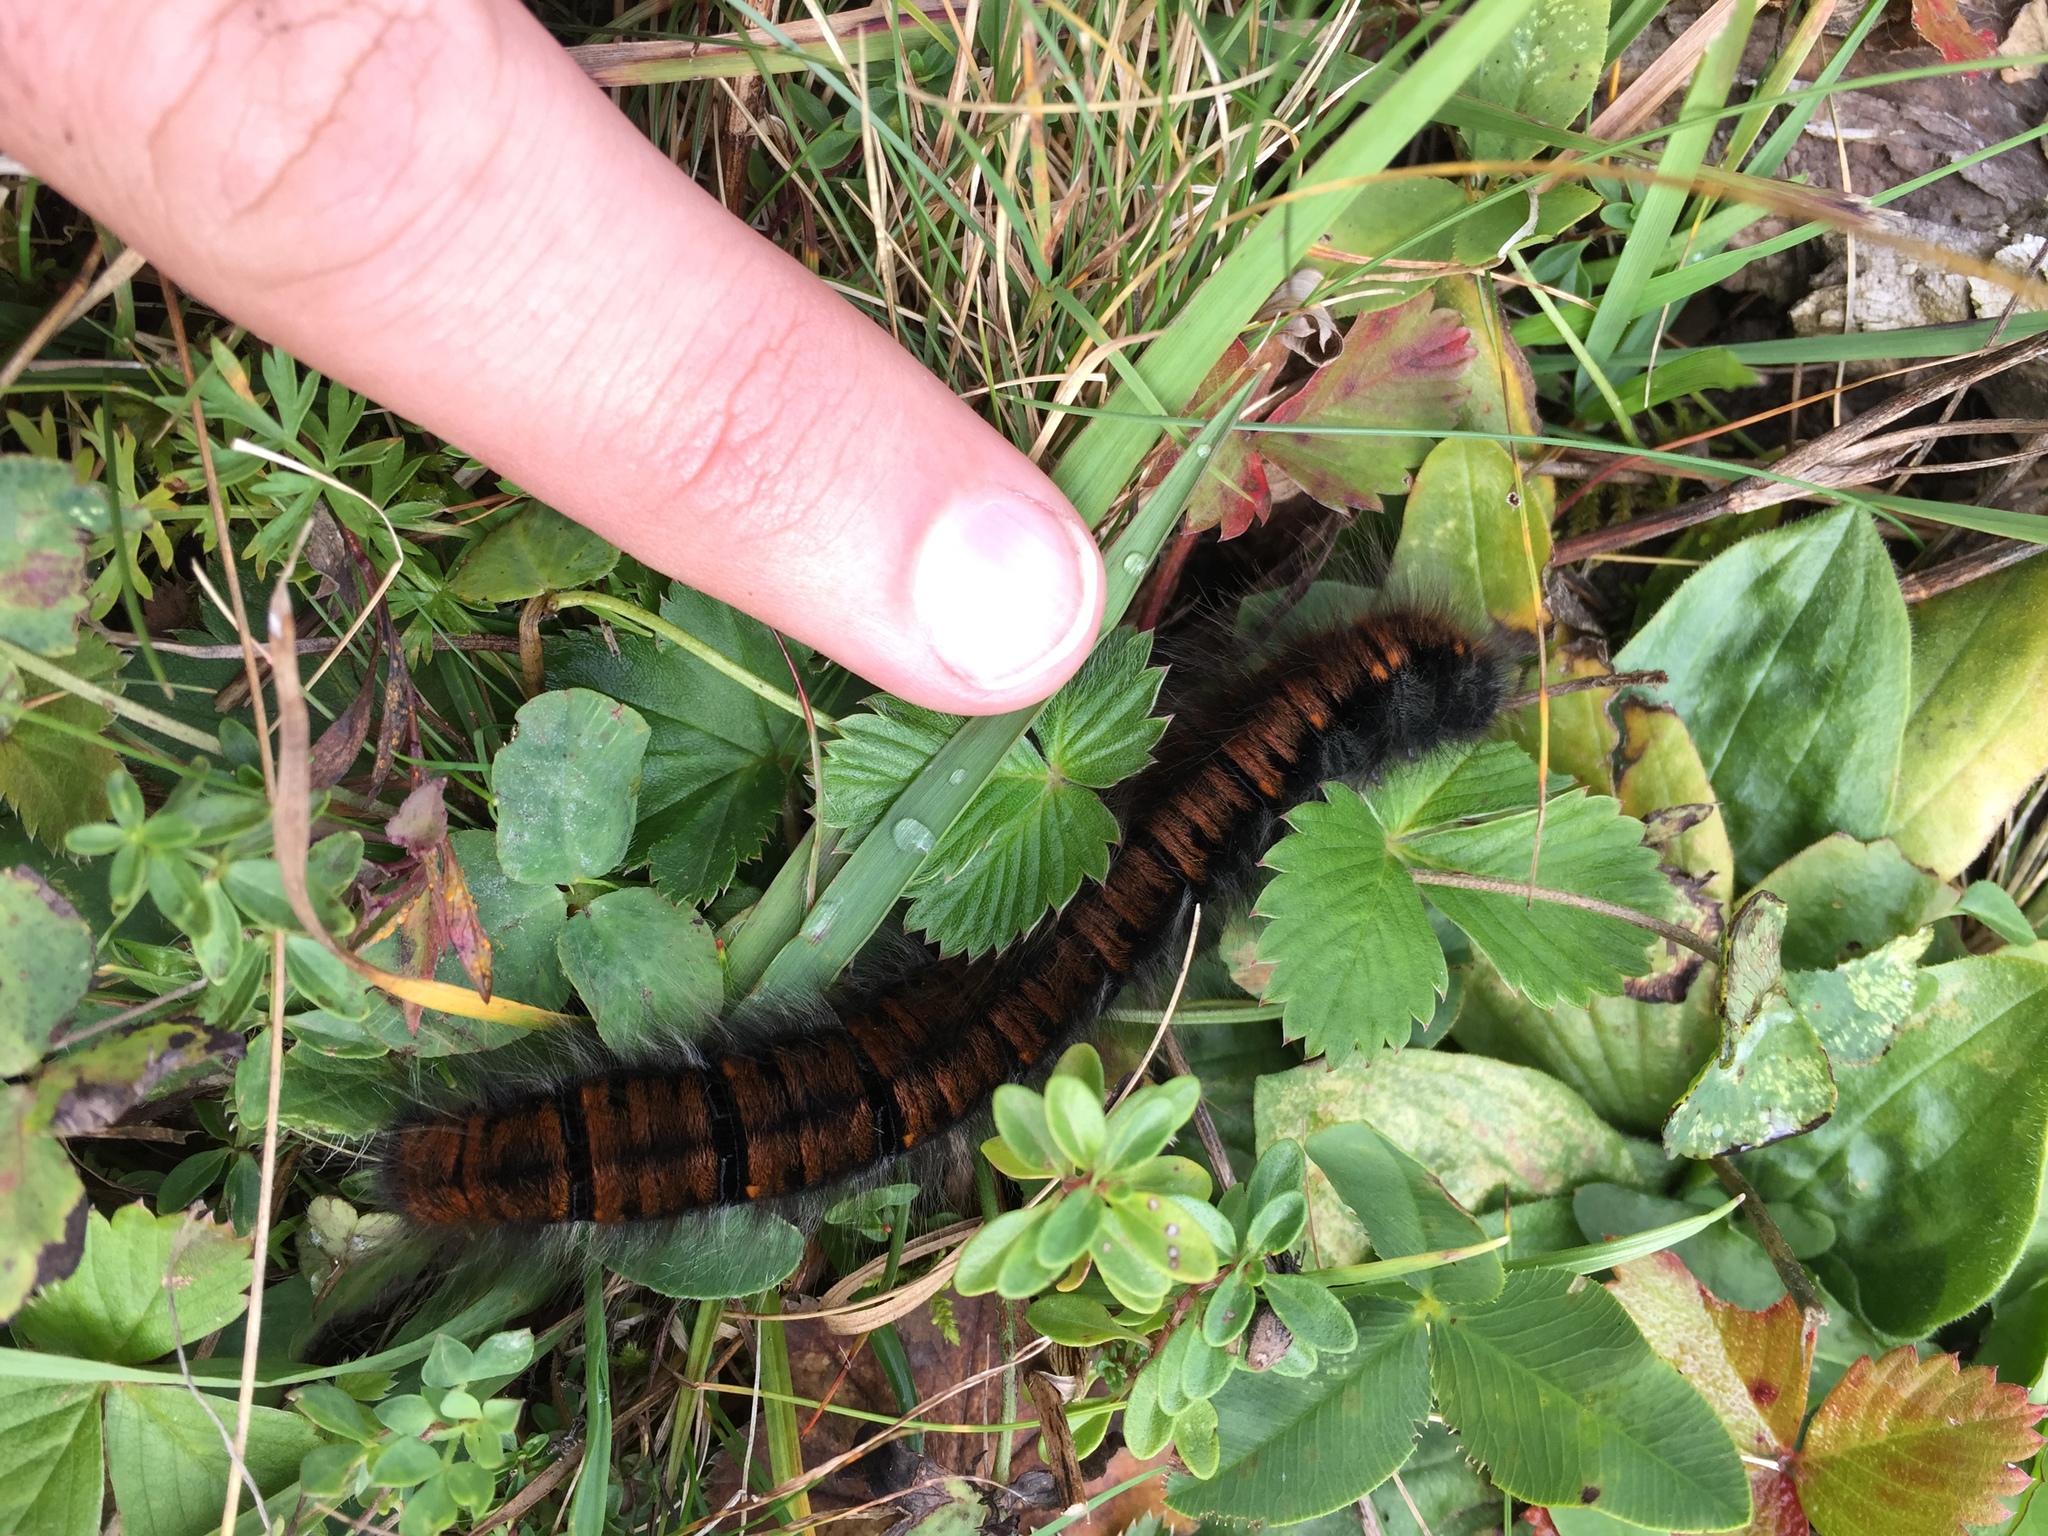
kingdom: Animalia
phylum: Arthropoda
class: Insecta
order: Lepidoptera
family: Lasiocampidae
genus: Macrothylacia
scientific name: Macrothylacia rubi
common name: Fox moth
